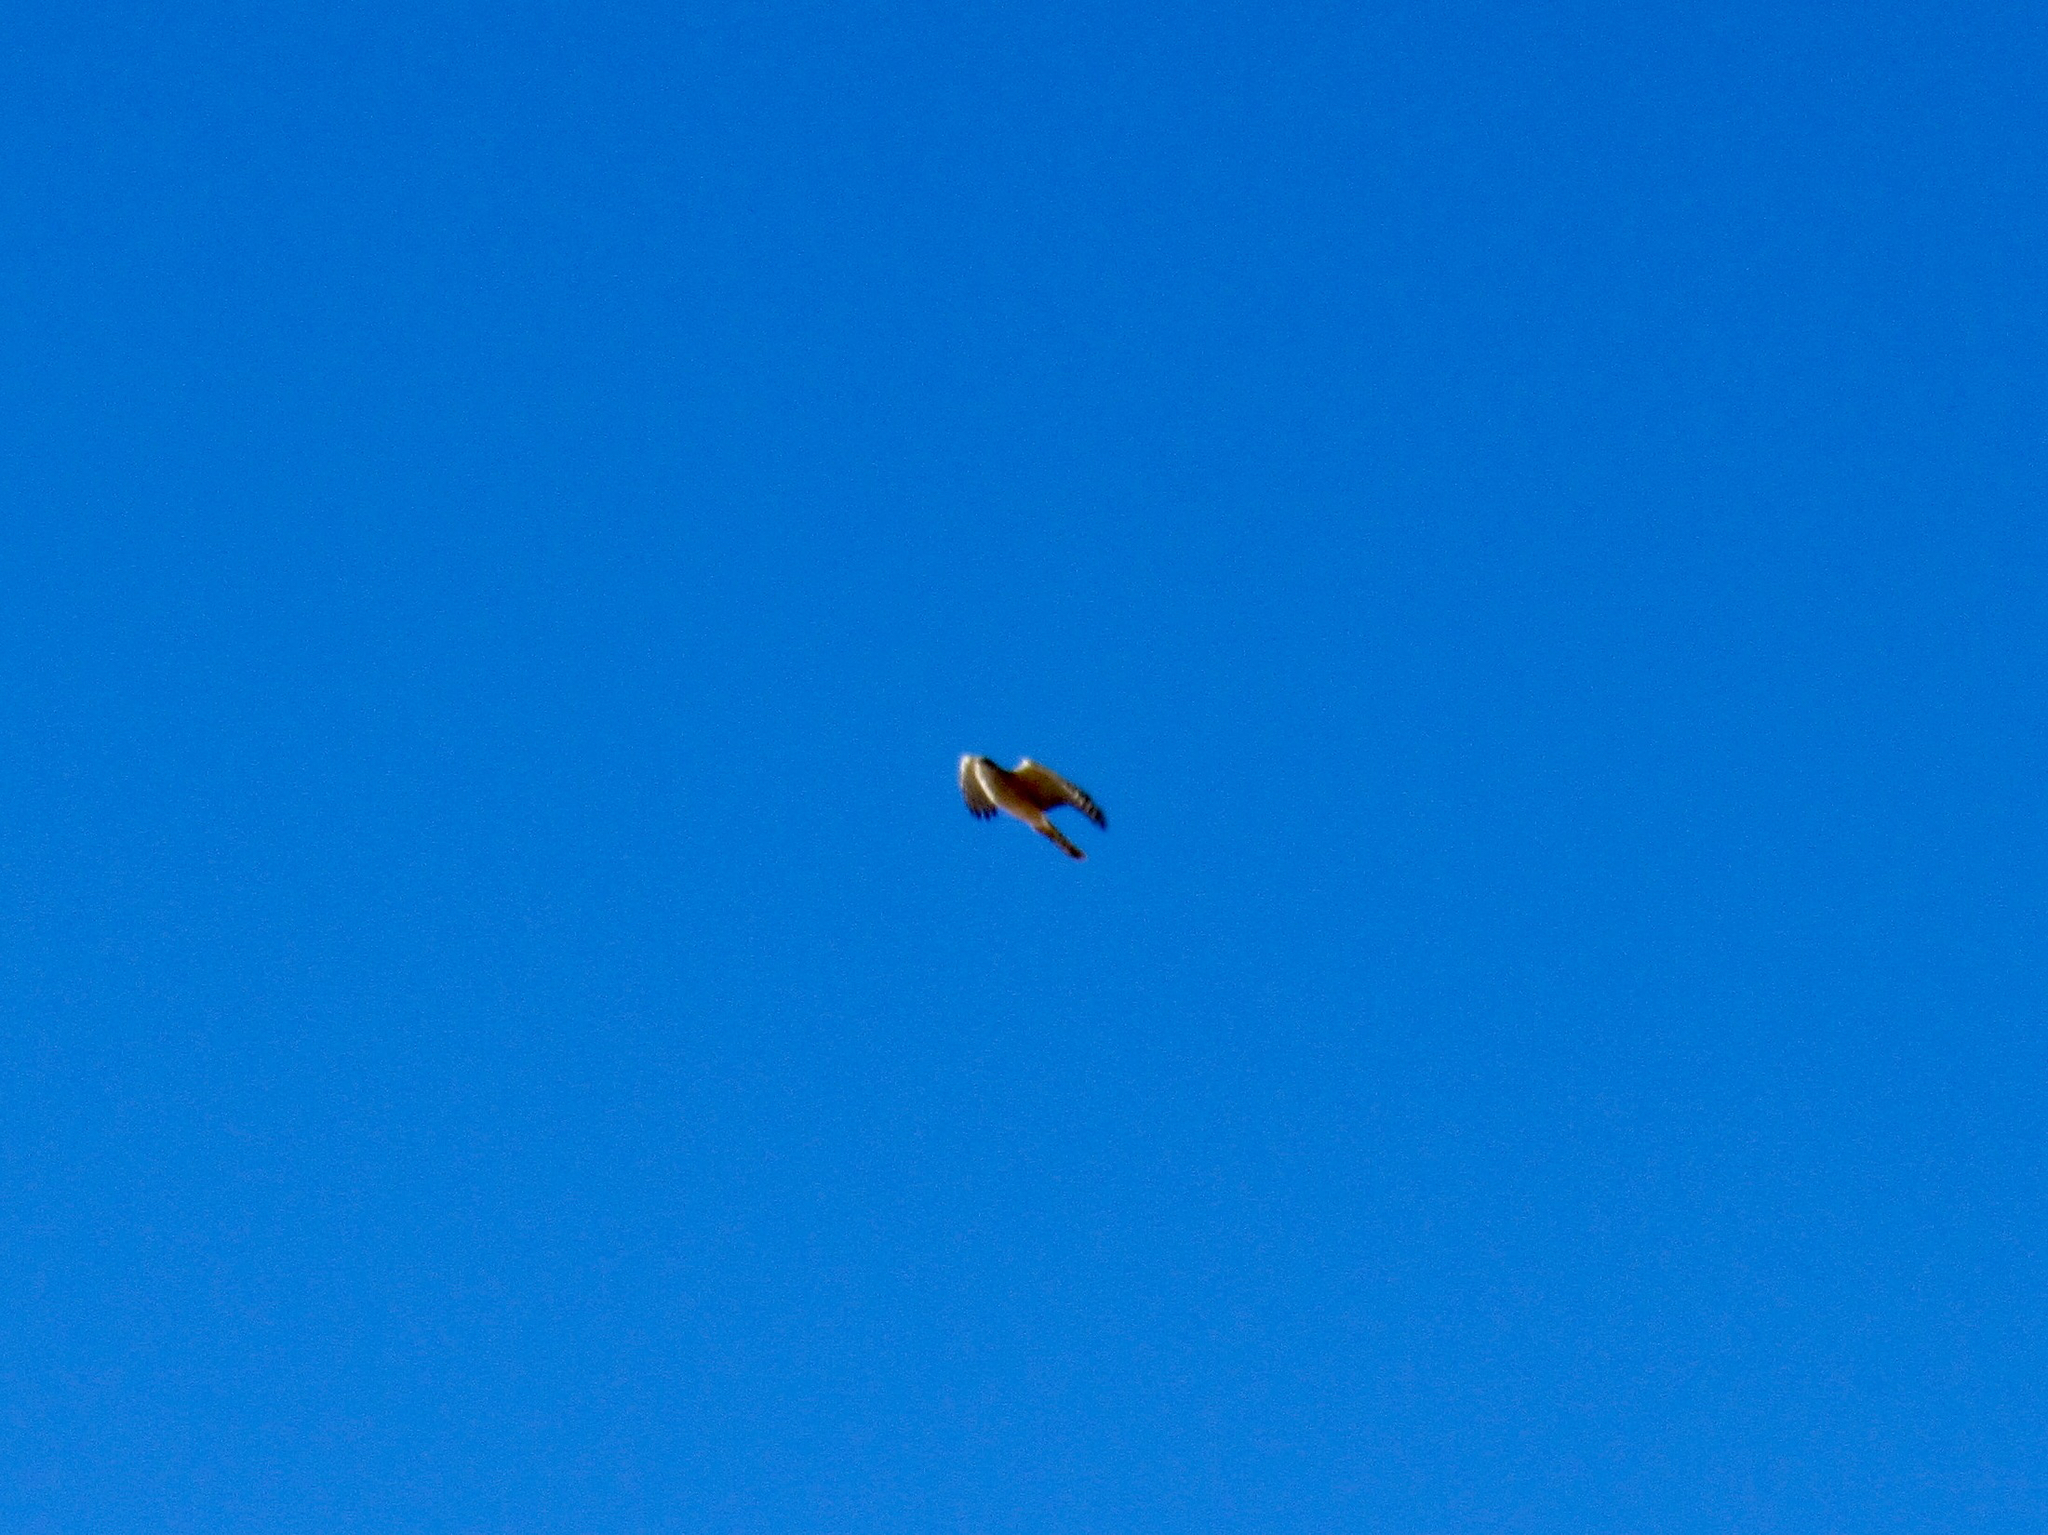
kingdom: Animalia
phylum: Chordata
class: Aves
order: Accipitriformes
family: Accipitridae
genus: Circus
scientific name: Circus cyaneus
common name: Hen harrier
